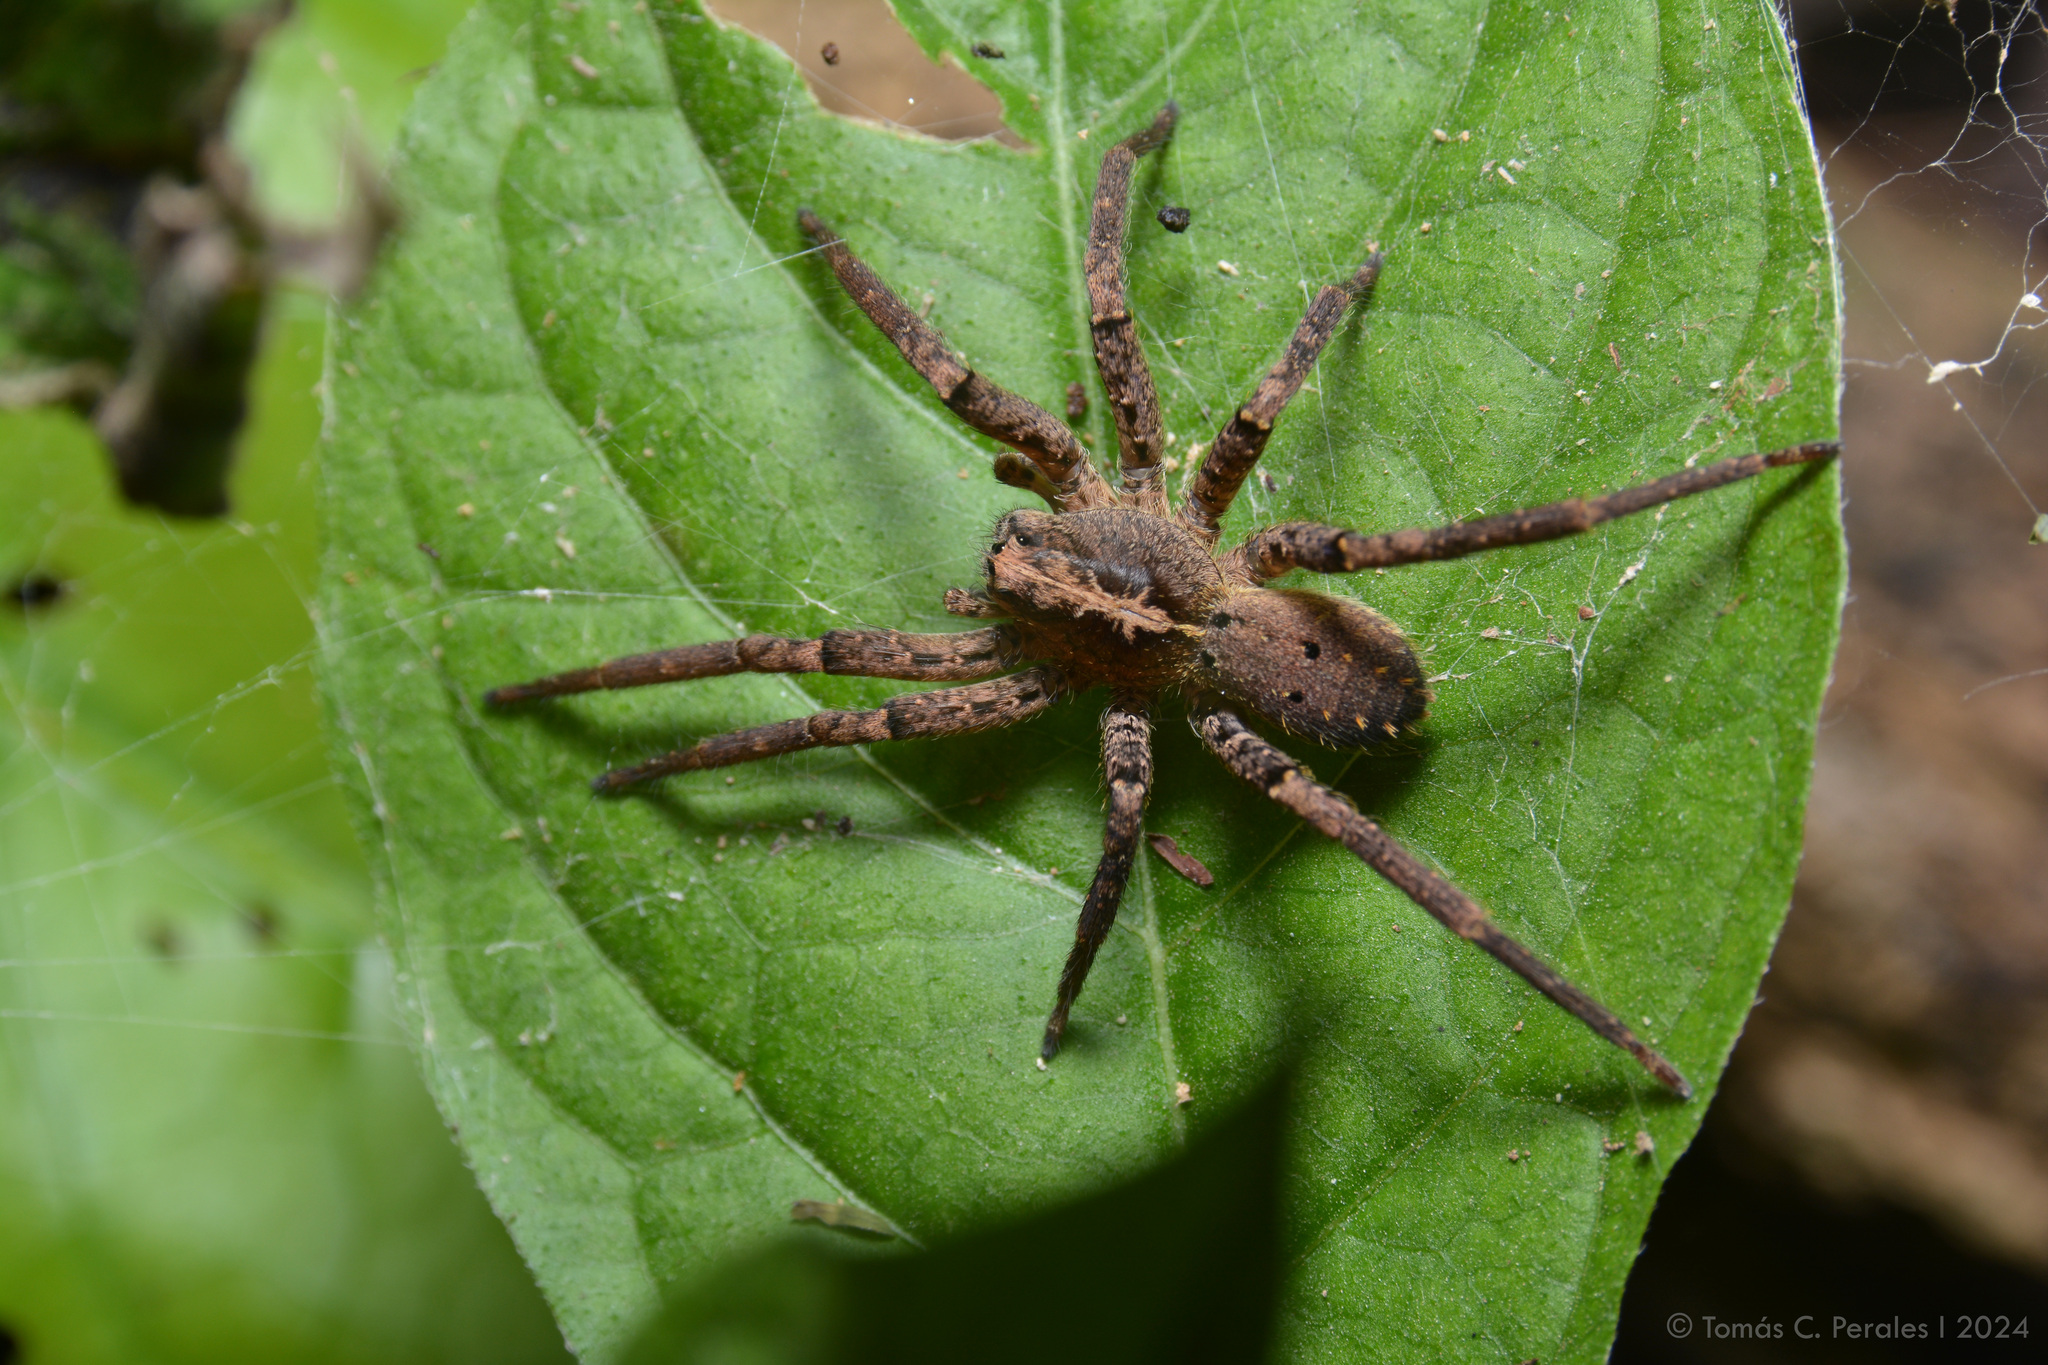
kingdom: Animalia
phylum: Arthropoda
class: Arachnida
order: Araneae
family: Ctenidae
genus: Parabatinga
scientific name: Parabatinga brevipes
